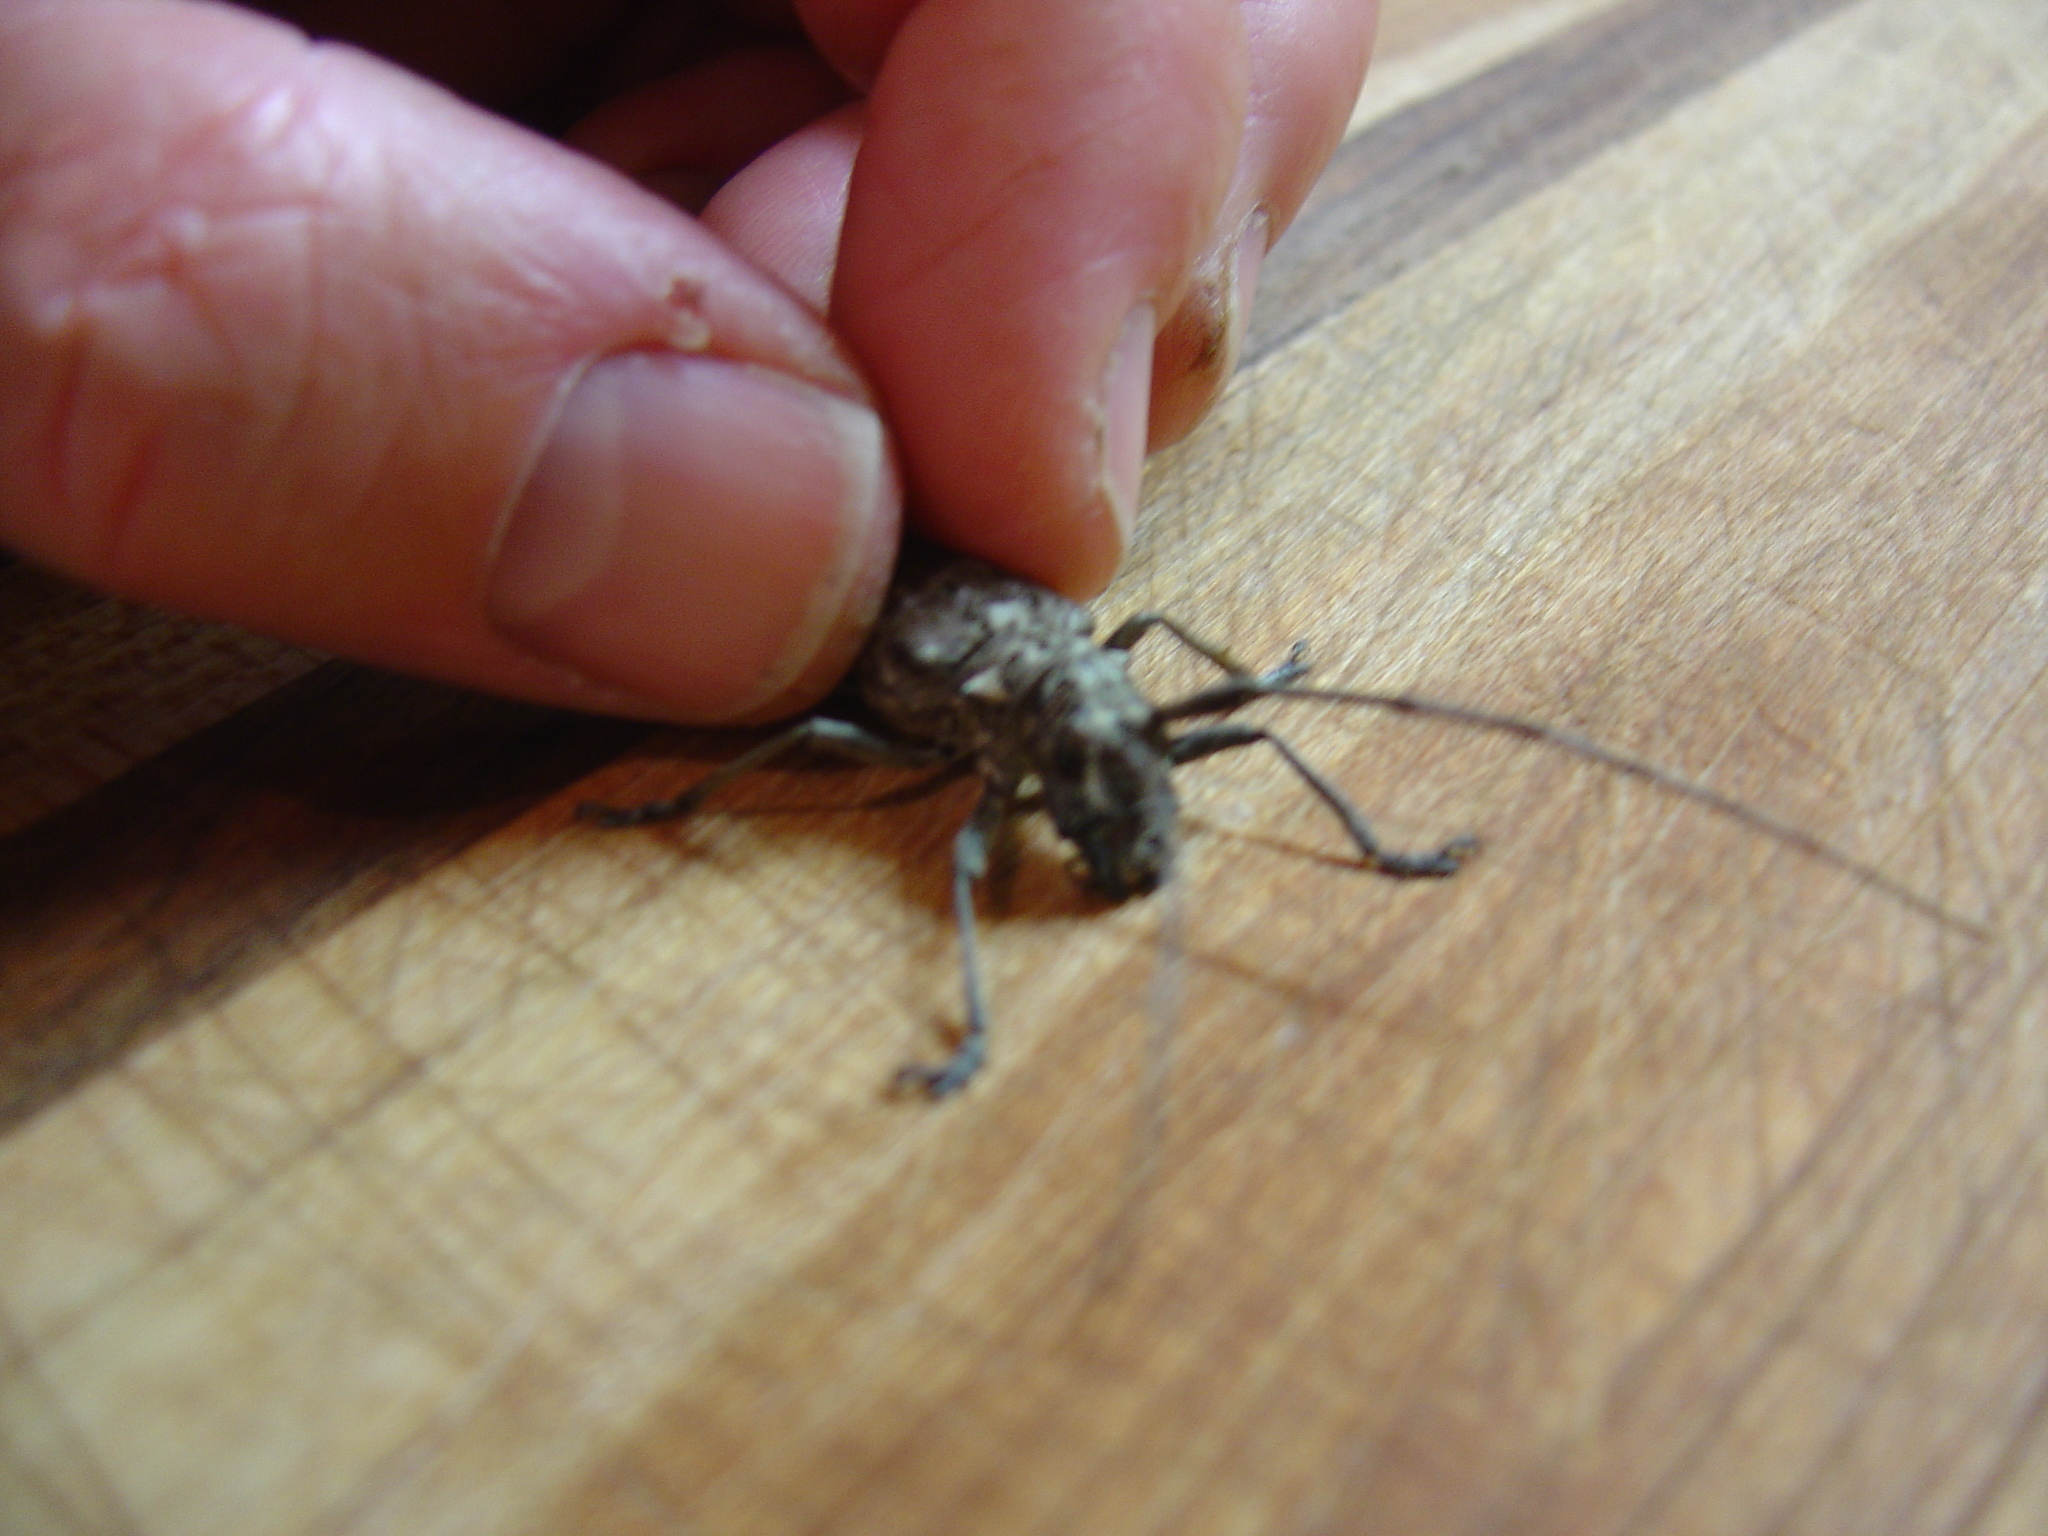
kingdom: Animalia
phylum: Arthropoda
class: Insecta
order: Coleoptera
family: Cerambycidae
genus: Monochamus
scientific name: Monochamus notatus
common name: Northeastern pine sawyer beetle
